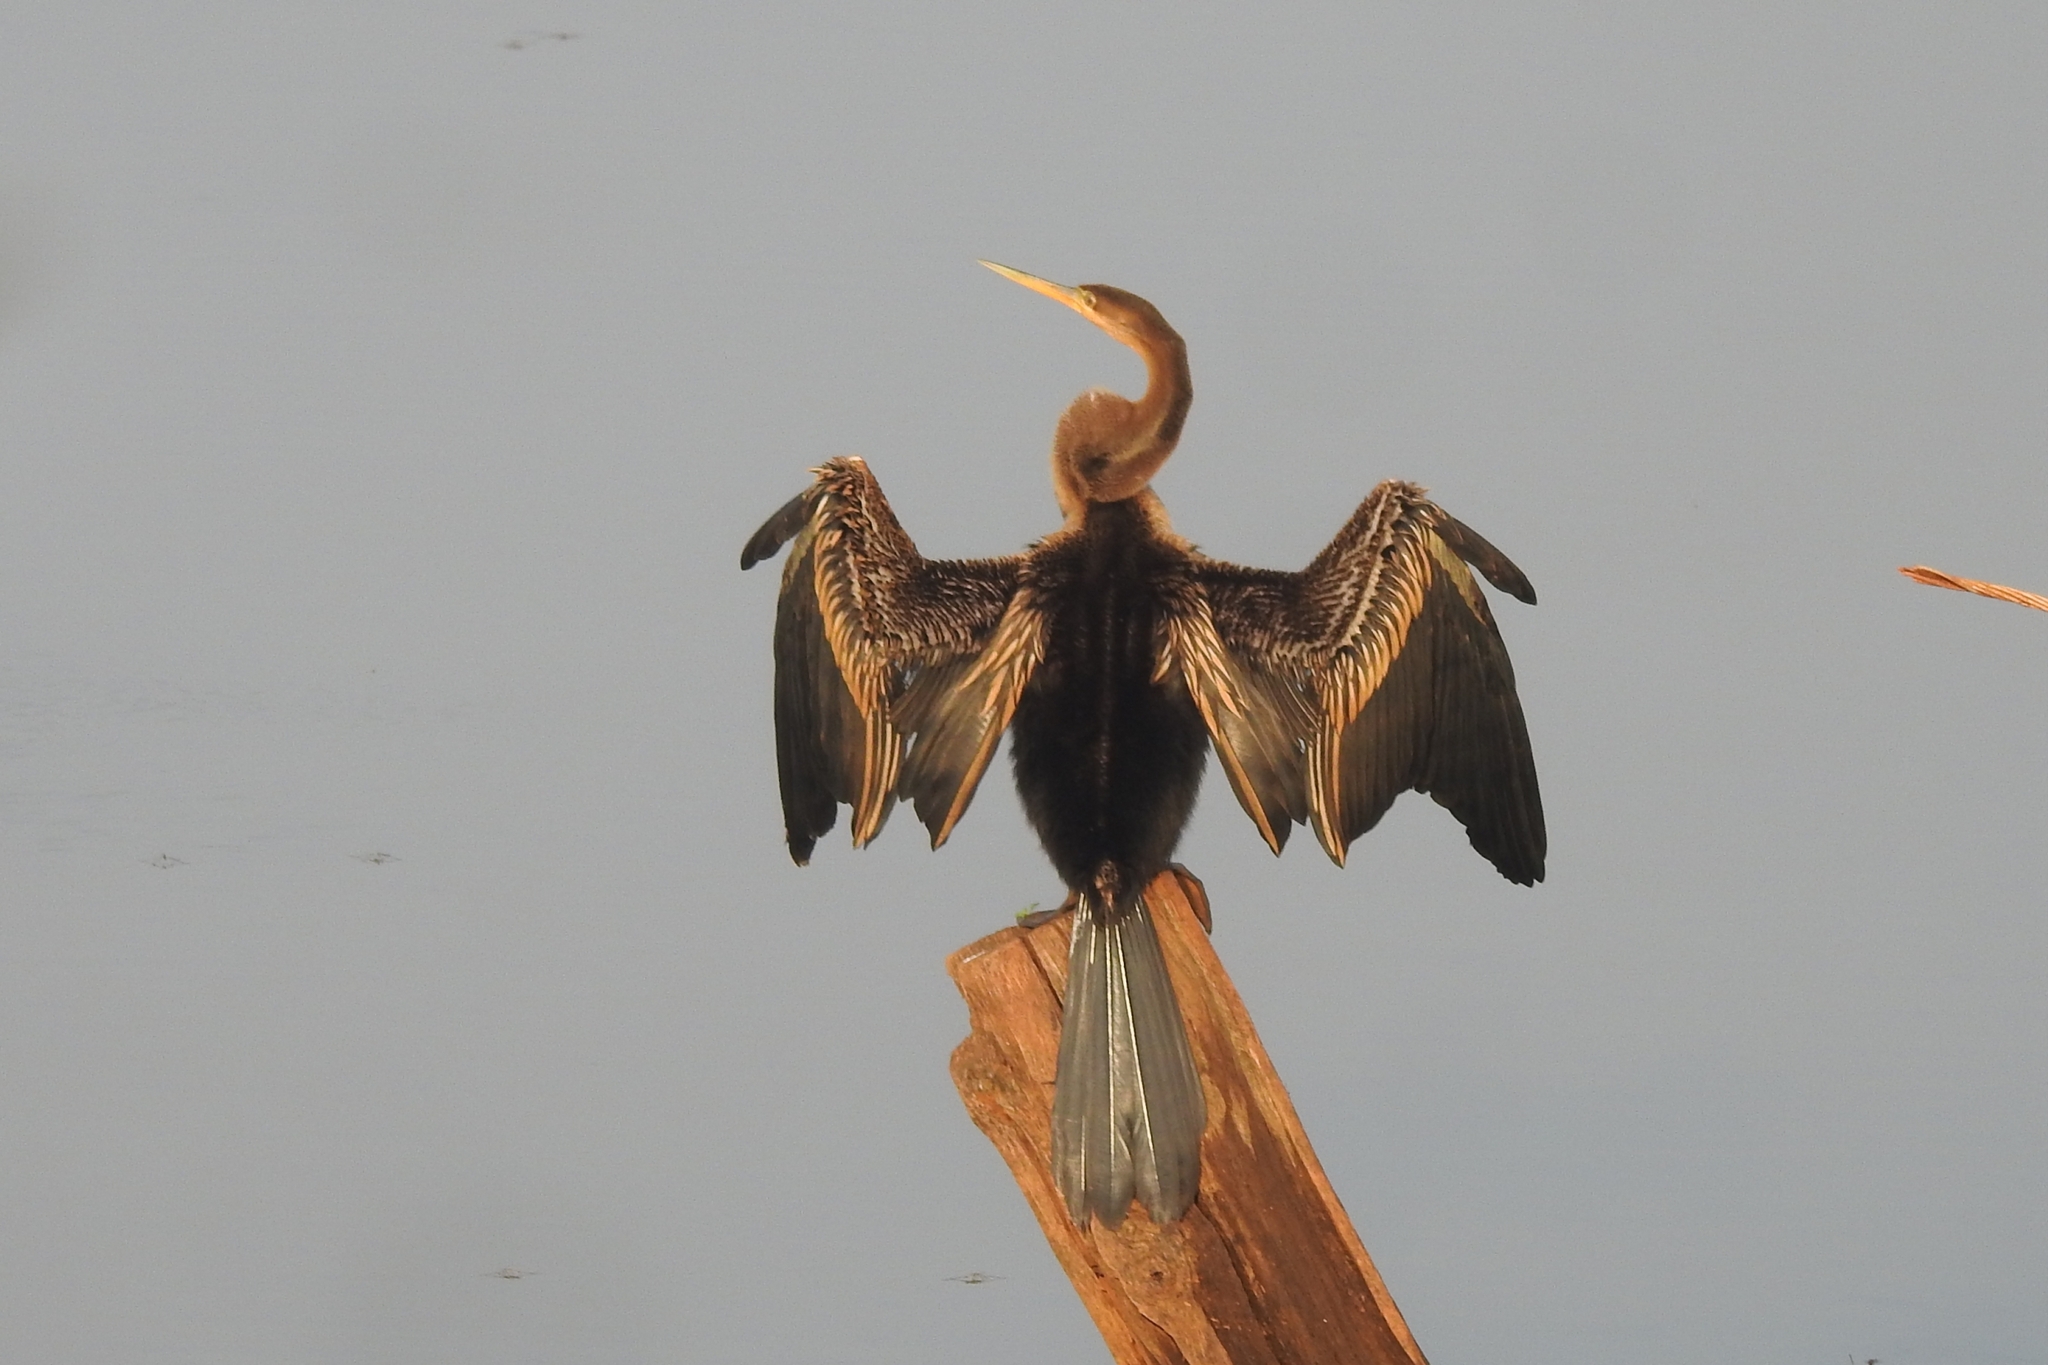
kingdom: Animalia
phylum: Chordata
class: Aves
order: Suliformes
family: Anhingidae
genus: Anhinga
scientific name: Anhinga melanogaster
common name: Oriental darter
